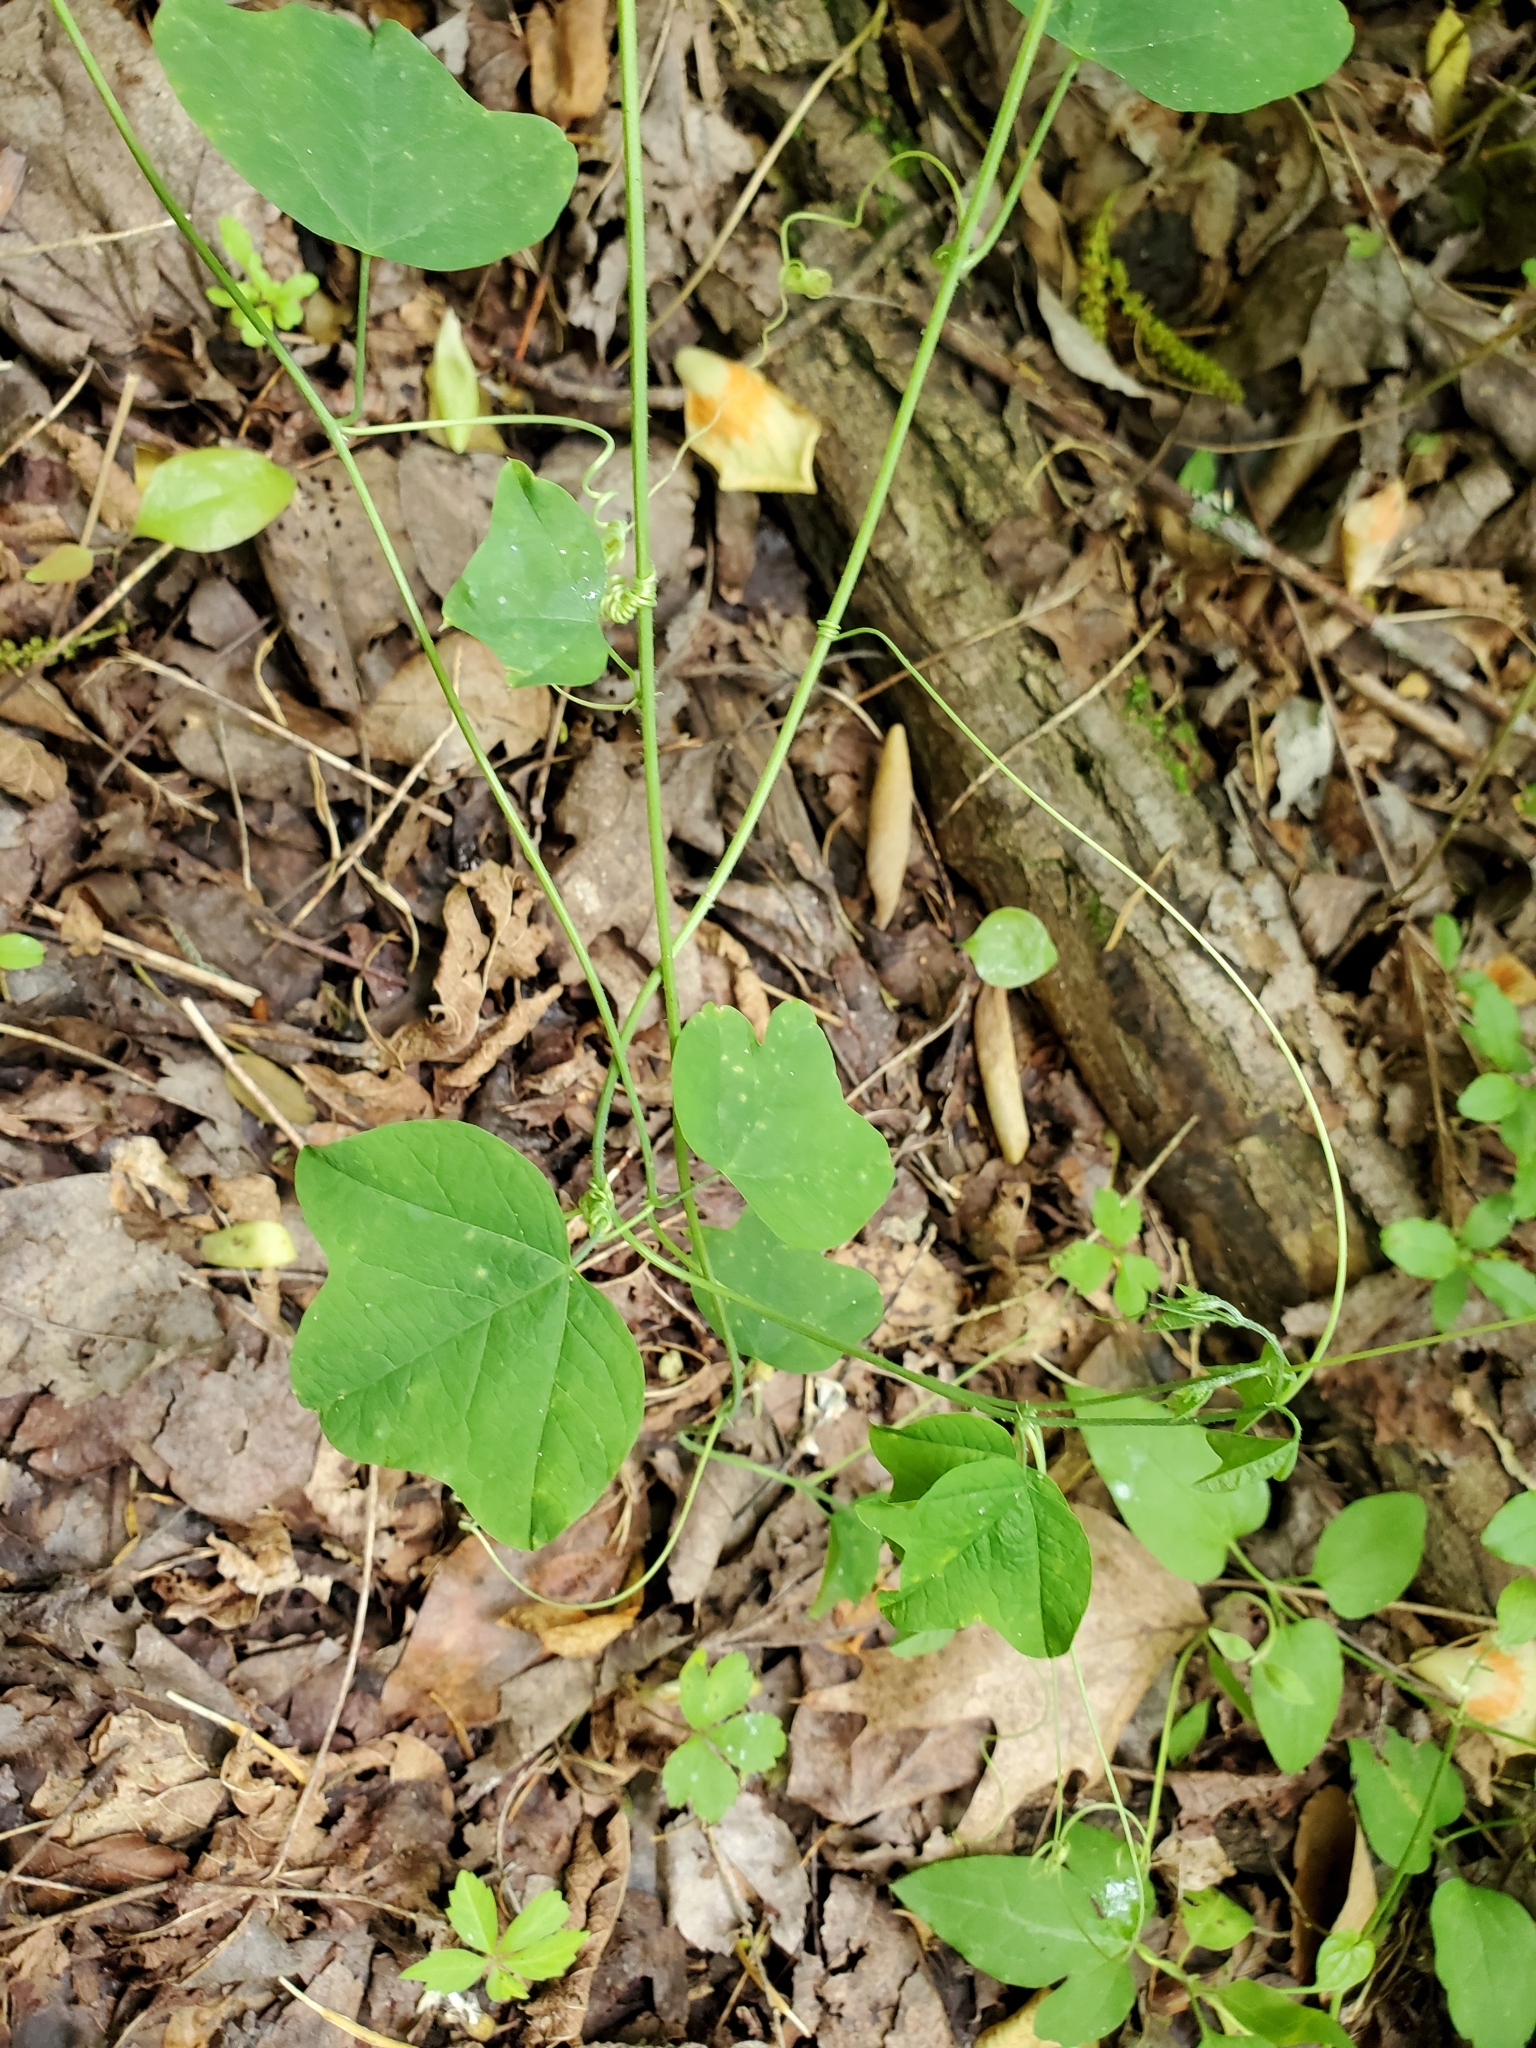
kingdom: Plantae
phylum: Tracheophyta
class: Magnoliopsida
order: Malpighiales
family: Passifloraceae
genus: Passiflora
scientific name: Passiflora lutea
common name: Yellow passionflower
